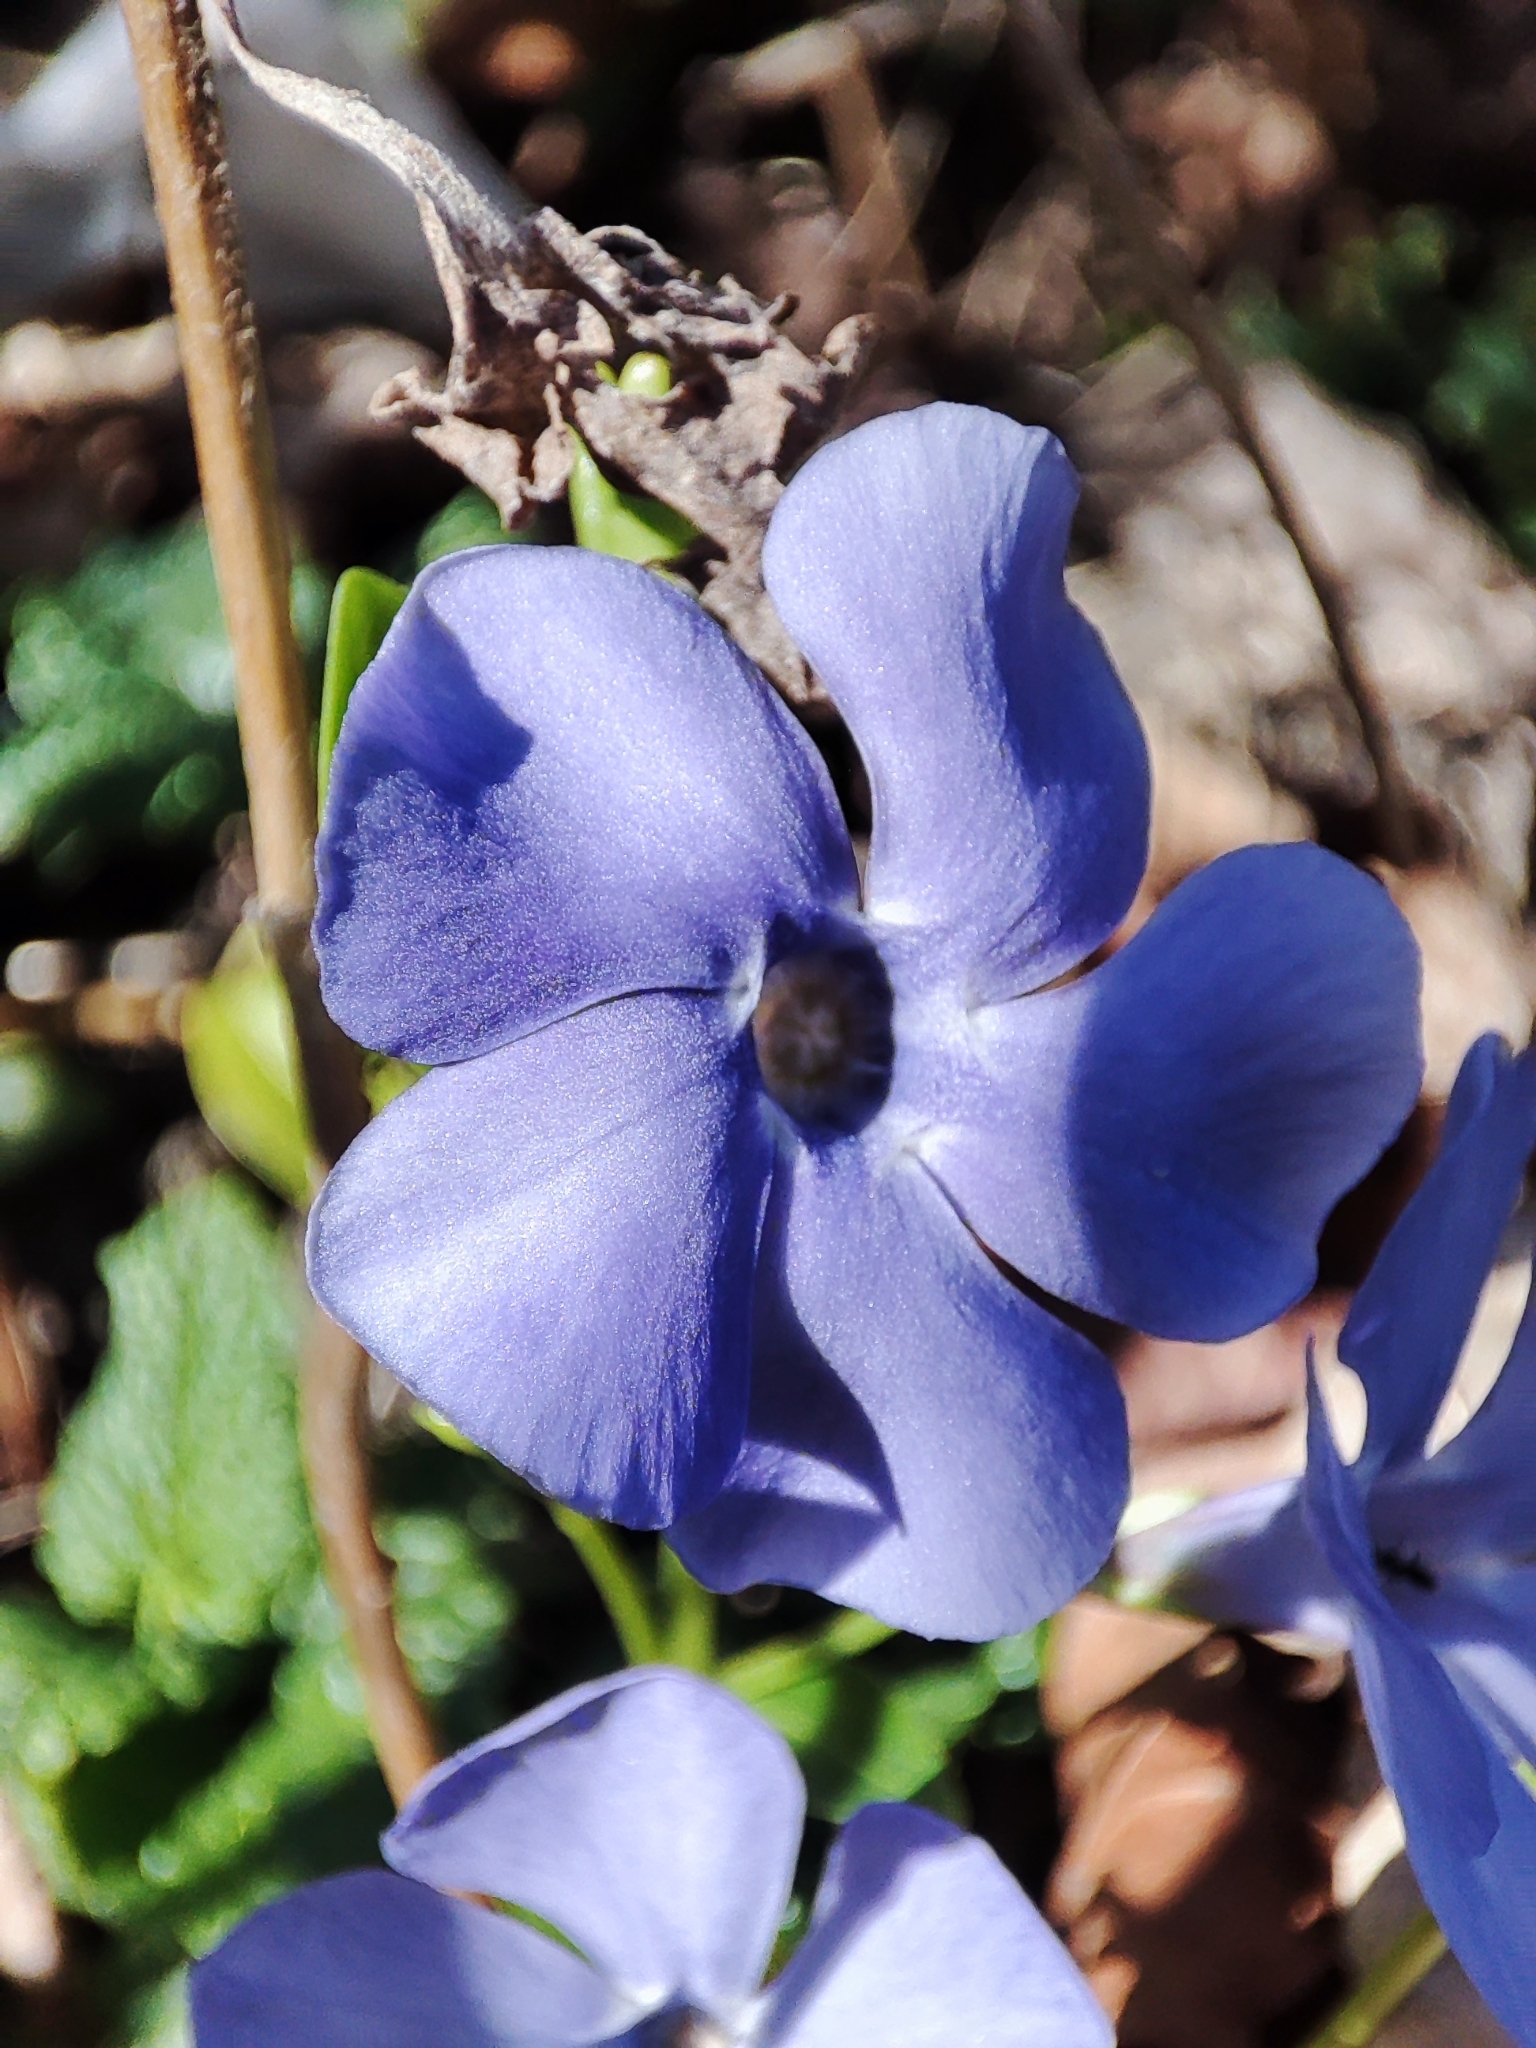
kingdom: Plantae
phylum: Tracheophyta
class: Magnoliopsida
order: Gentianales
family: Apocynaceae
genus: Vinca
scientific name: Vinca minor
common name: Lesser periwinkle
